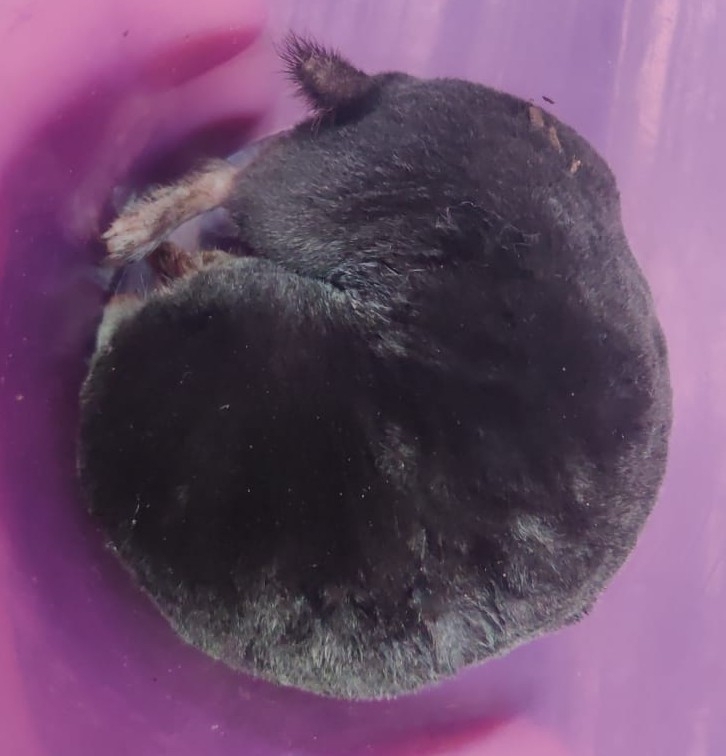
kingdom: Animalia
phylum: Chordata
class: Mammalia
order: Soricomorpha
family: Talpidae
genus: Talpa
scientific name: Talpa europaea
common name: European mole
